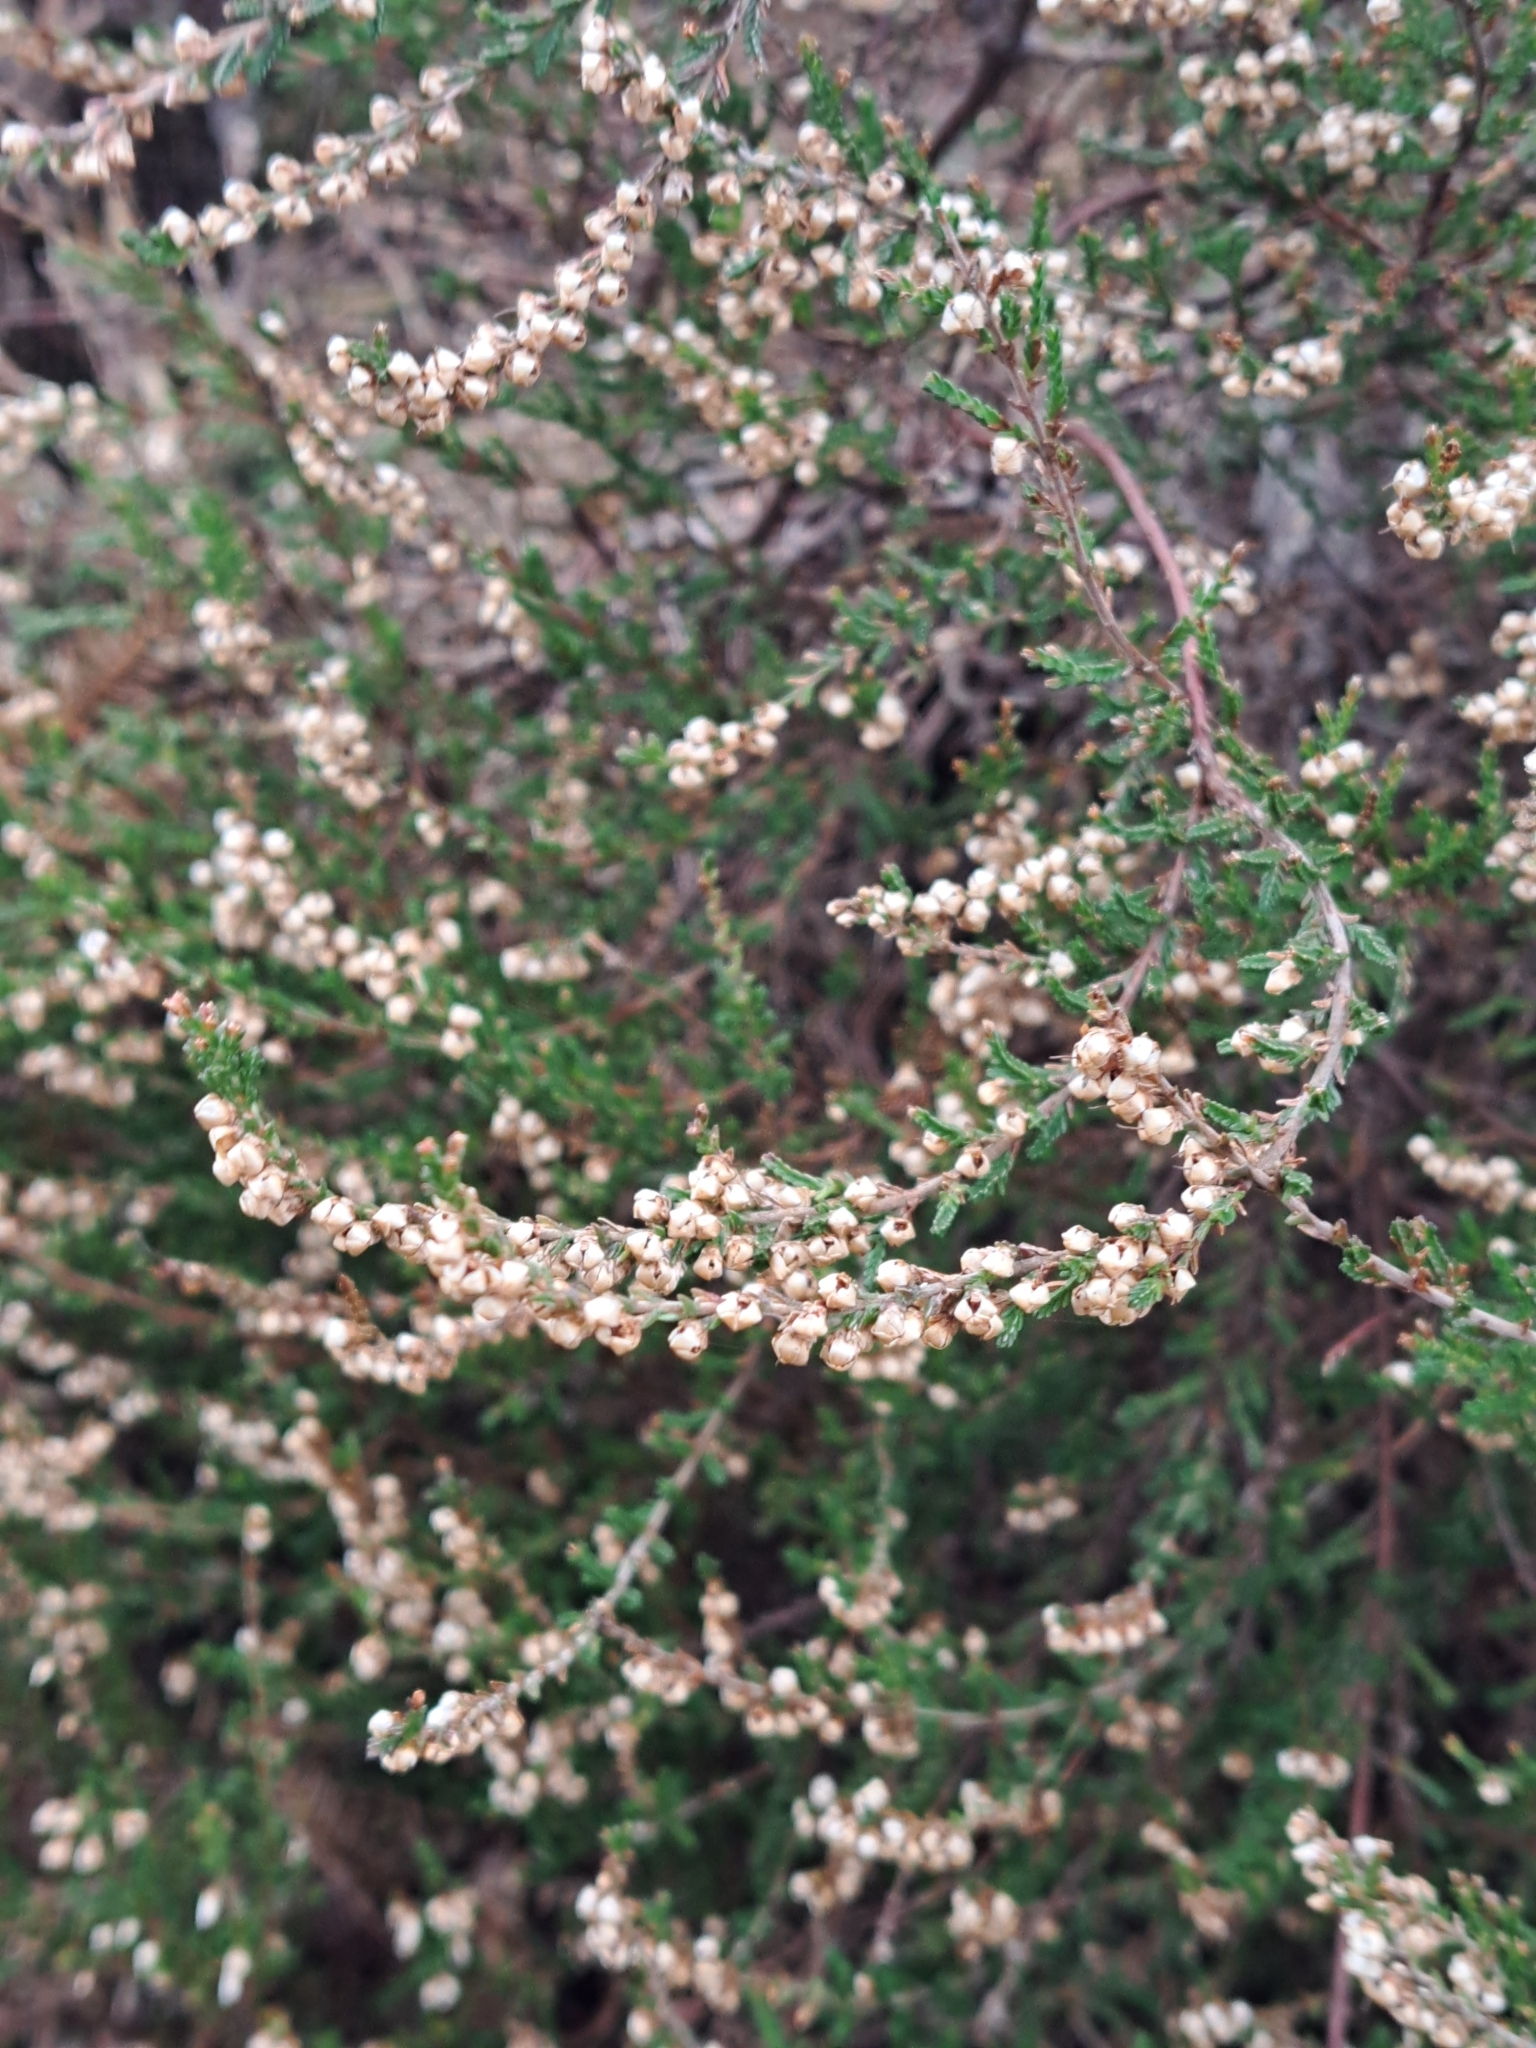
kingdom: Plantae
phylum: Tracheophyta
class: Magnoliopsida
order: Ericales
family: Ericaceae
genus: Calluna
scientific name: Calluna vulgaris
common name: Heather
